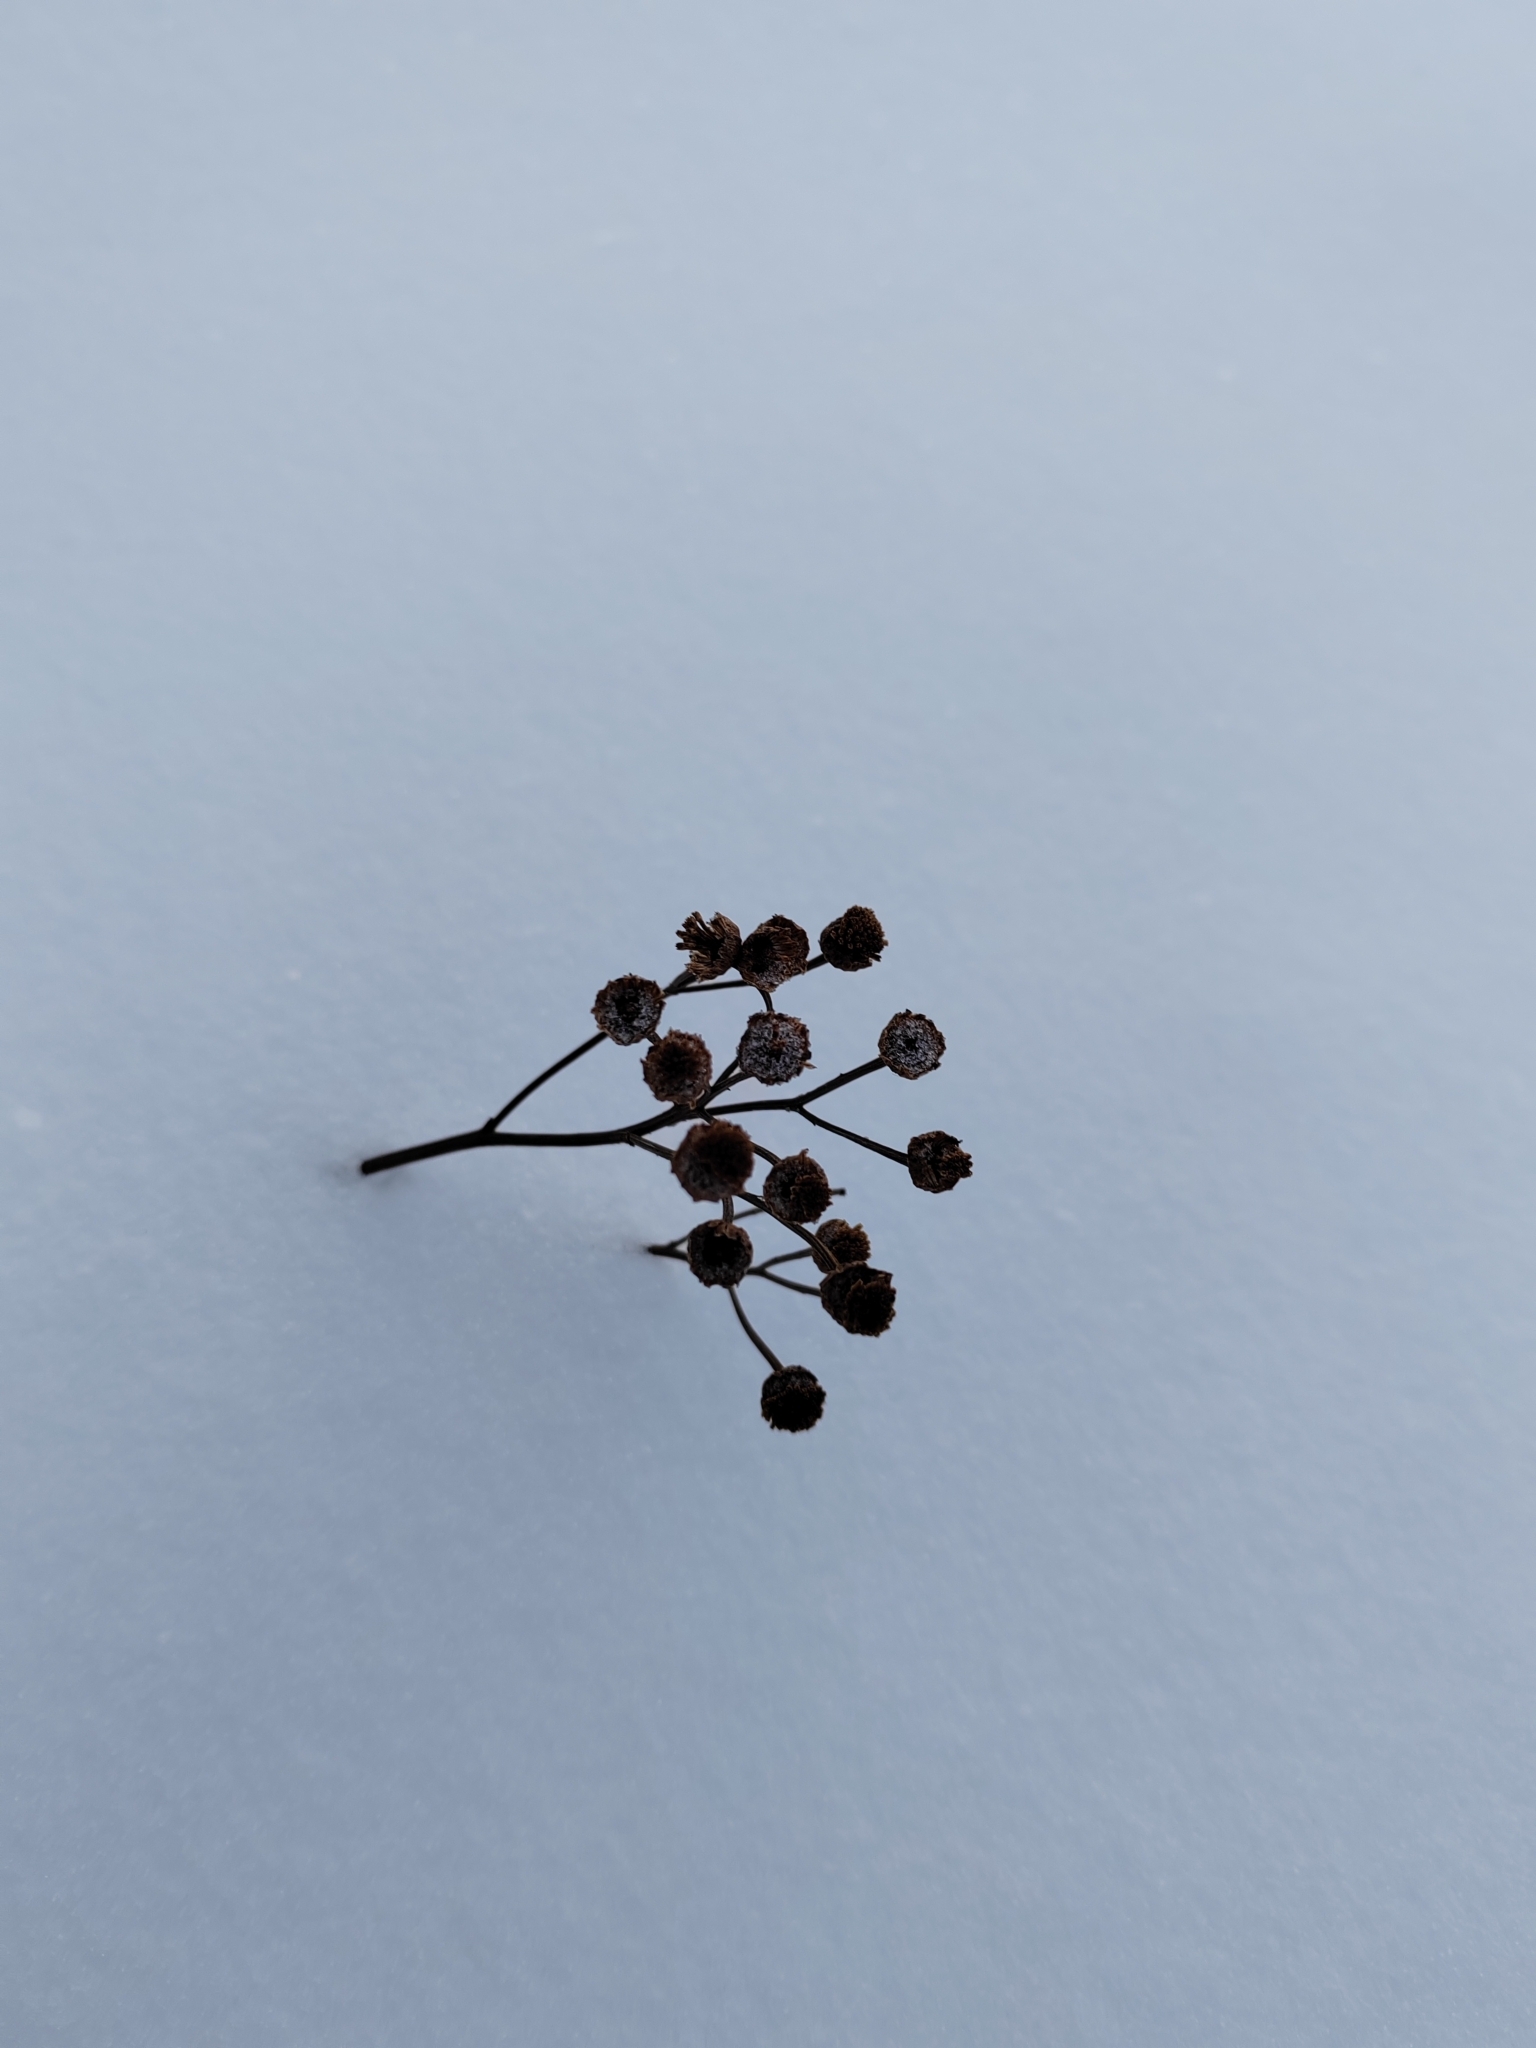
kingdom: Plantae
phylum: Tracheophyta
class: Magnoliopsida
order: Asterales
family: Asteraceae
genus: Tanacetum
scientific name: Tanacetum vulgare
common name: Common tansy
